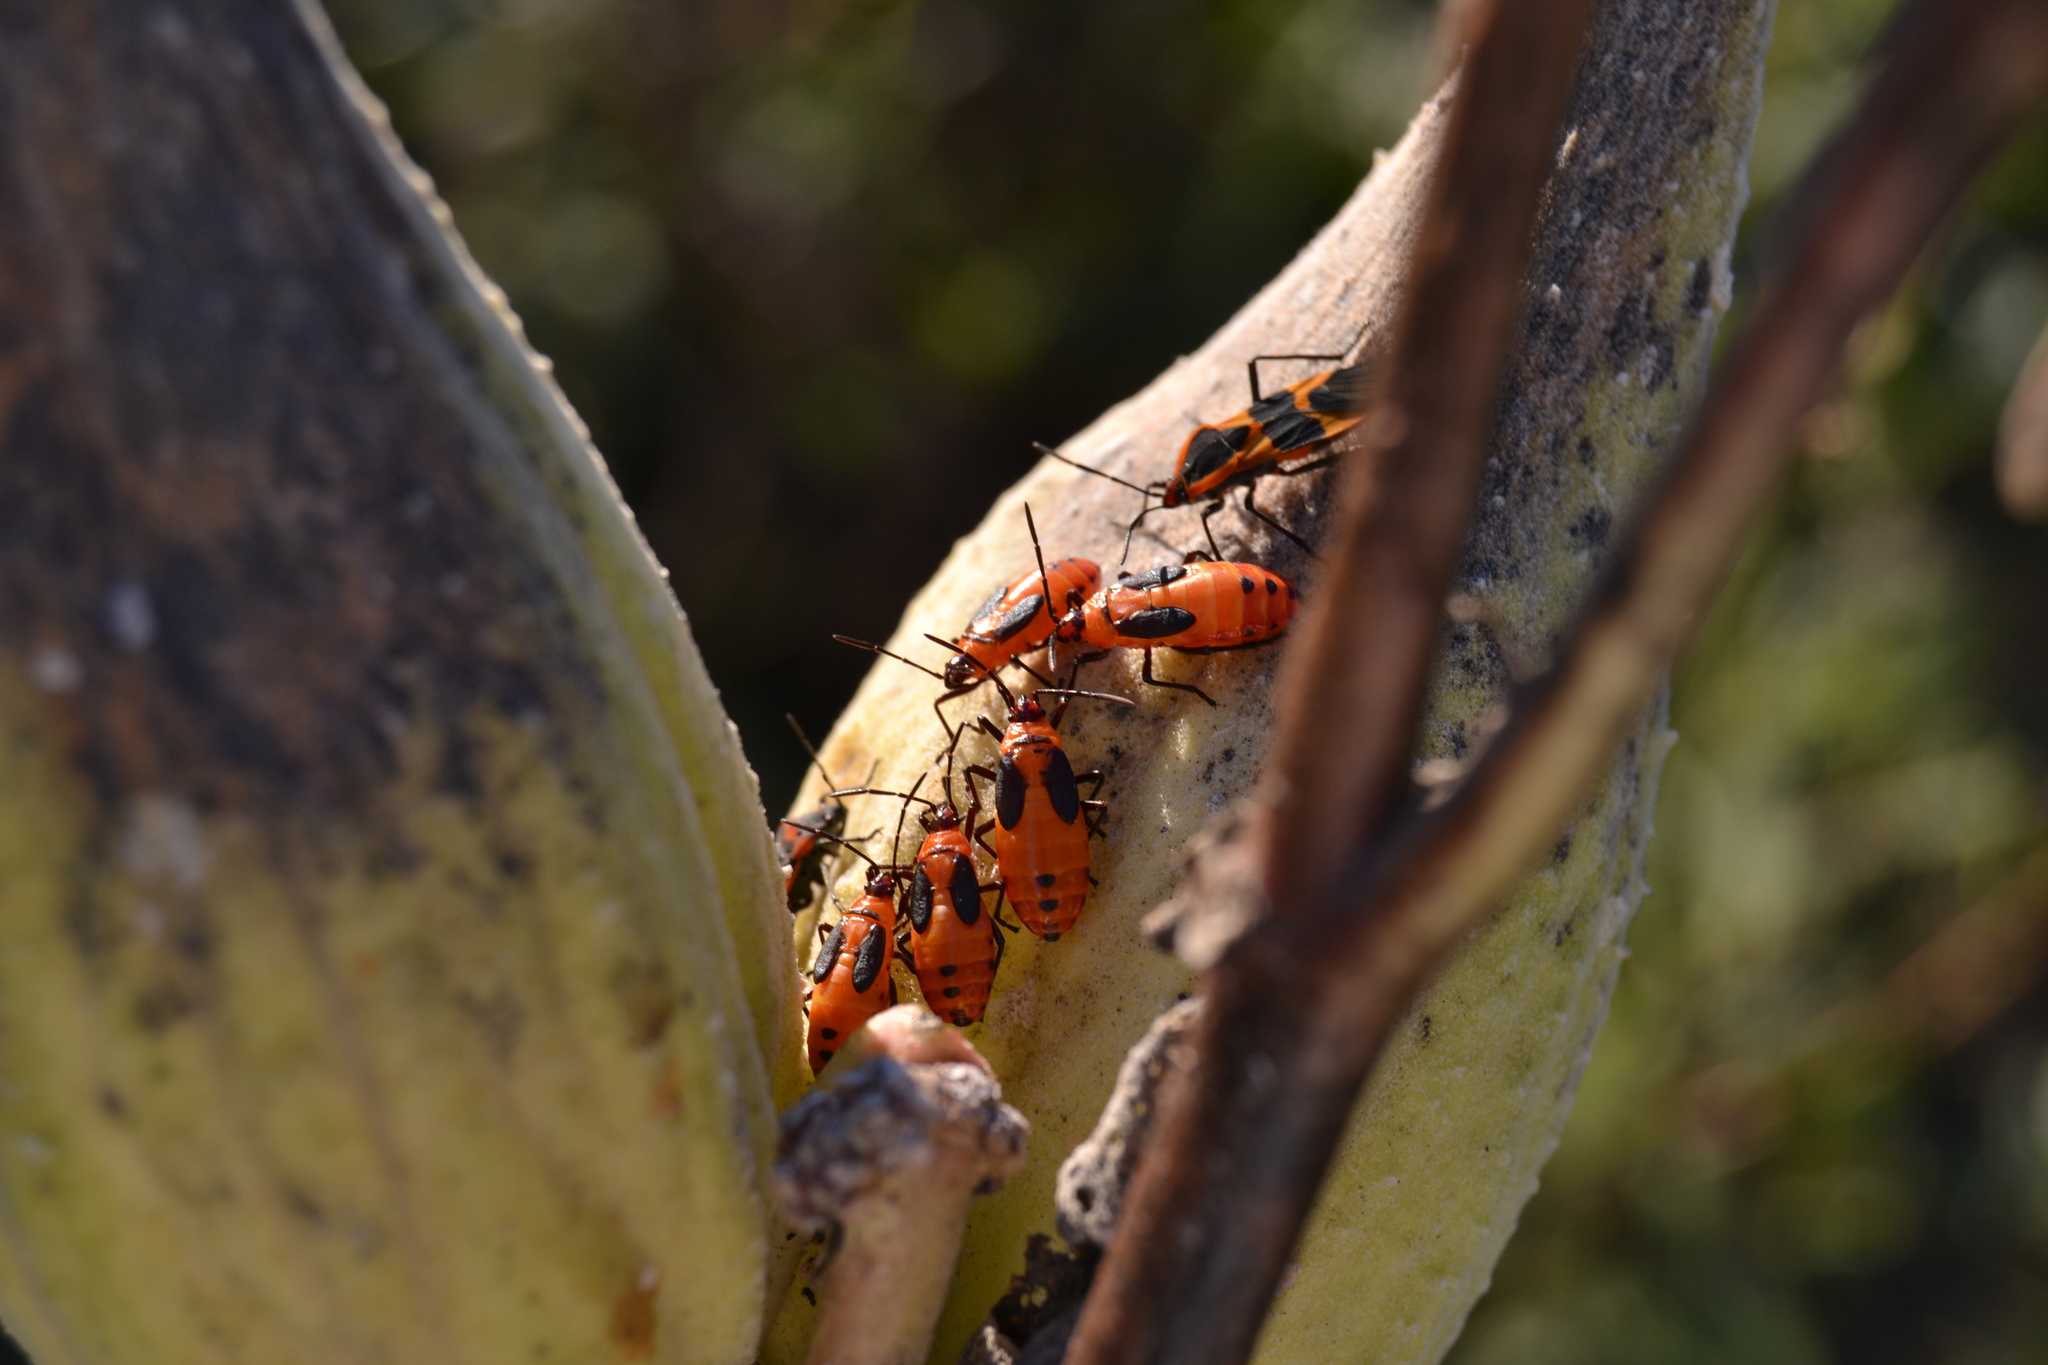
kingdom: Animalia
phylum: Arthropoda
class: Insecta
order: Hemiptera
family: Lygaeidae
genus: Oncopeltus
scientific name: Oncopeltus fasciatus
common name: Large milkweed bug
